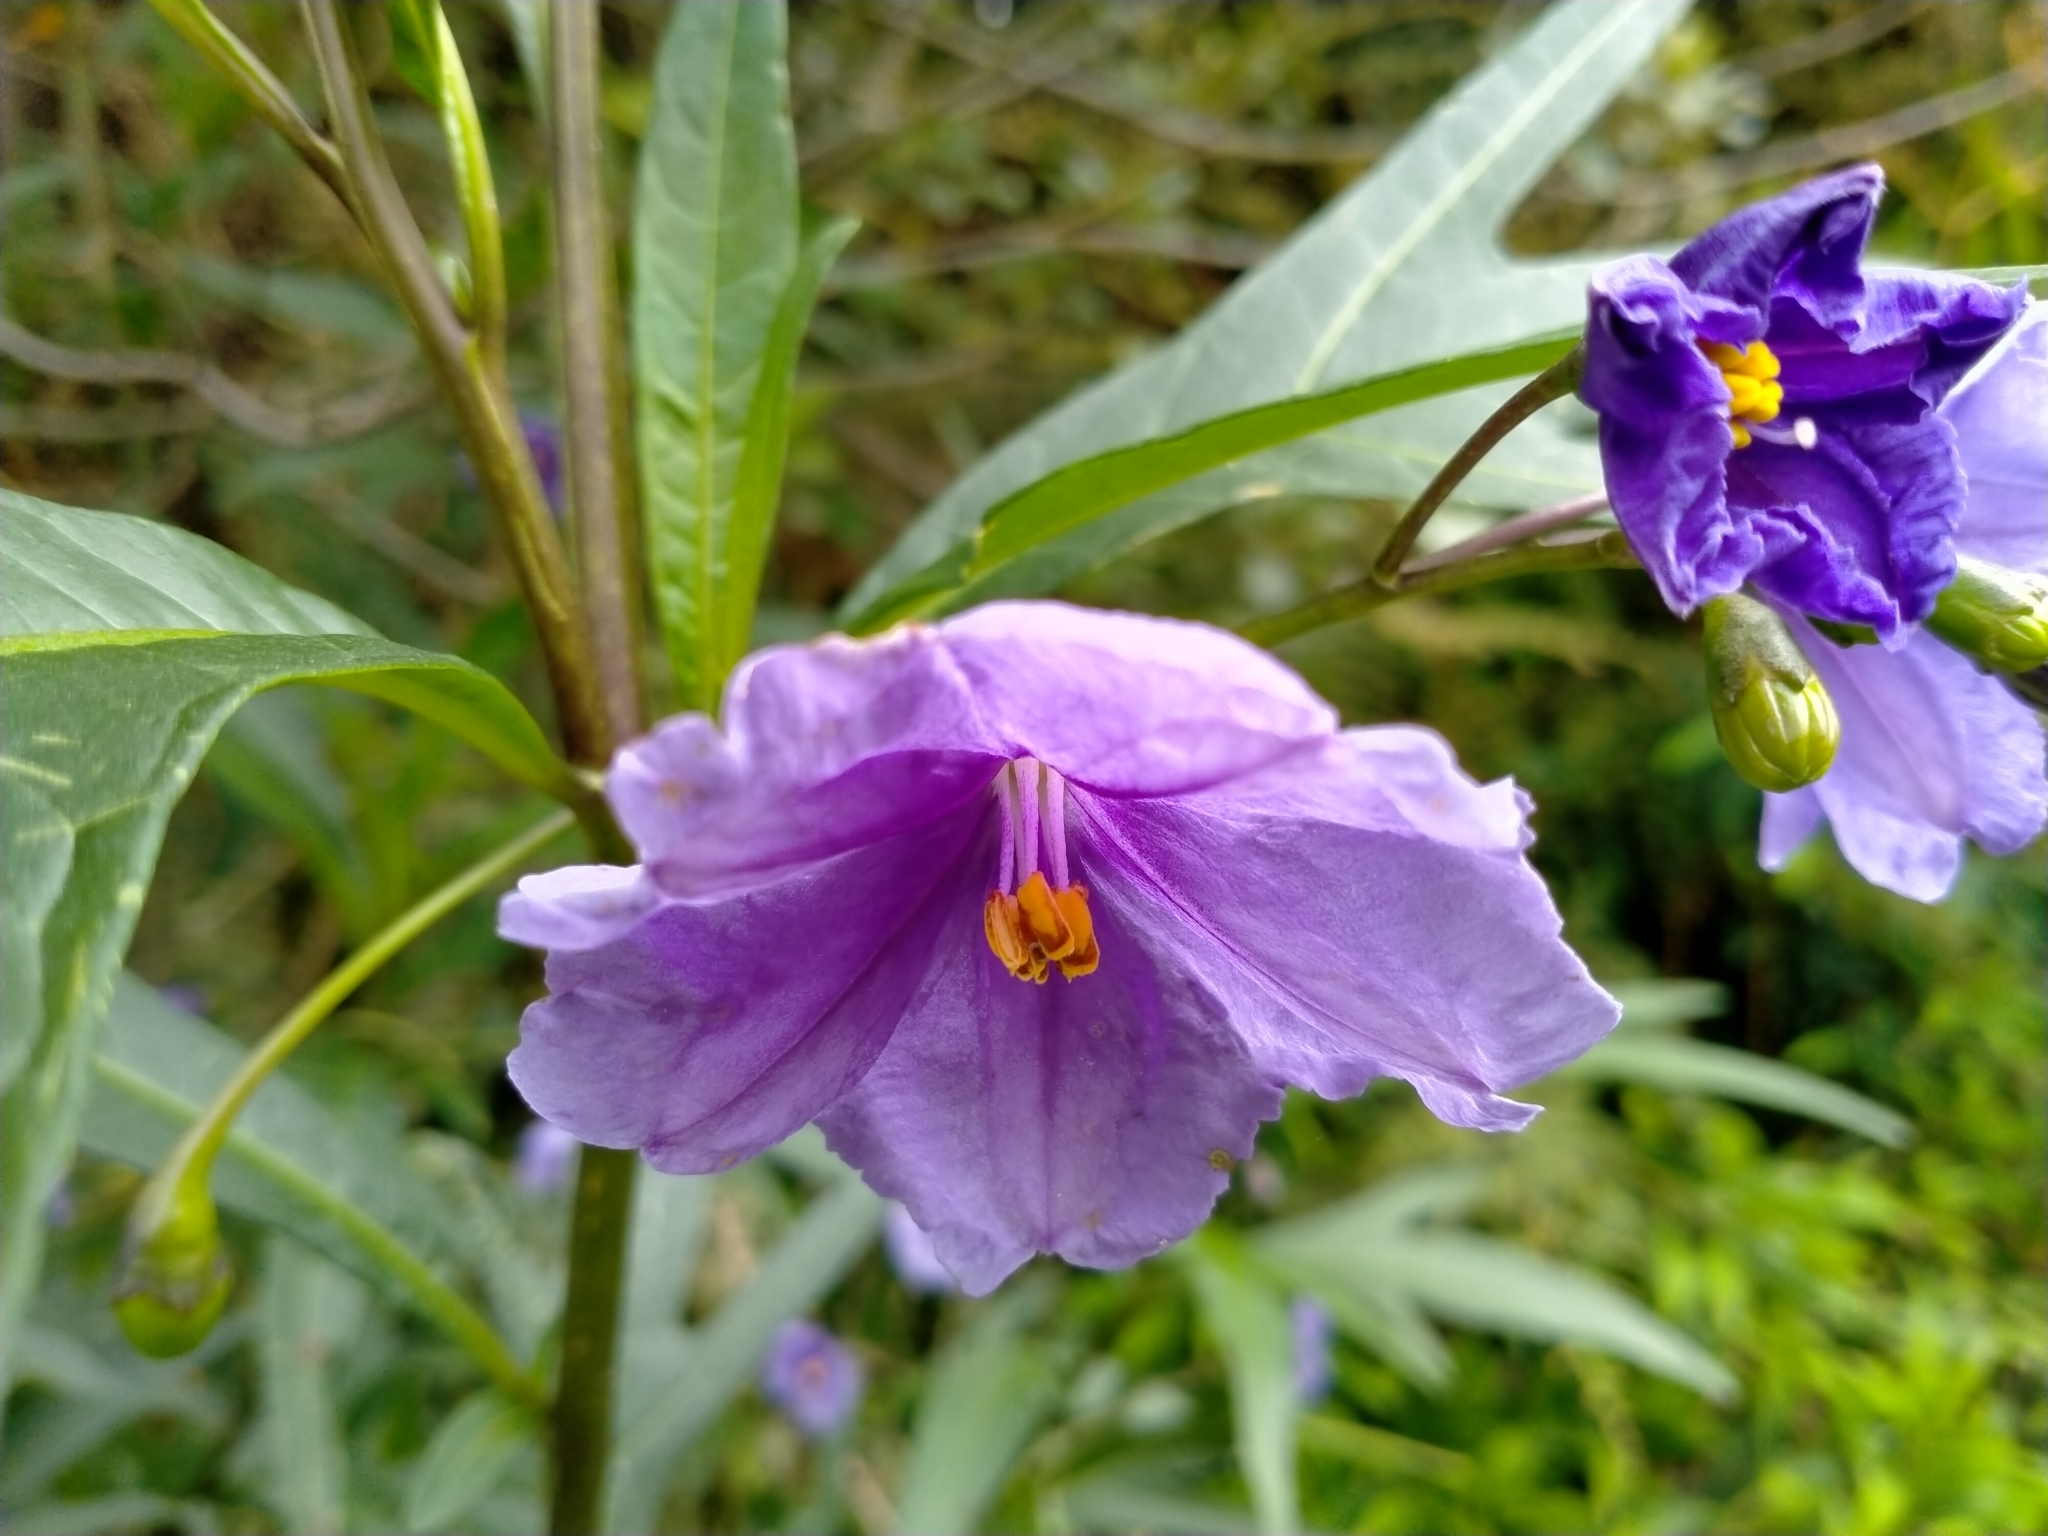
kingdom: Plantae
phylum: Tracheophyta
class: Magnoliopsida
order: Solanales
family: Solanaceae
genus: Solanum
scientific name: Solanum laciniatum
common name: Kangaroo-apple
